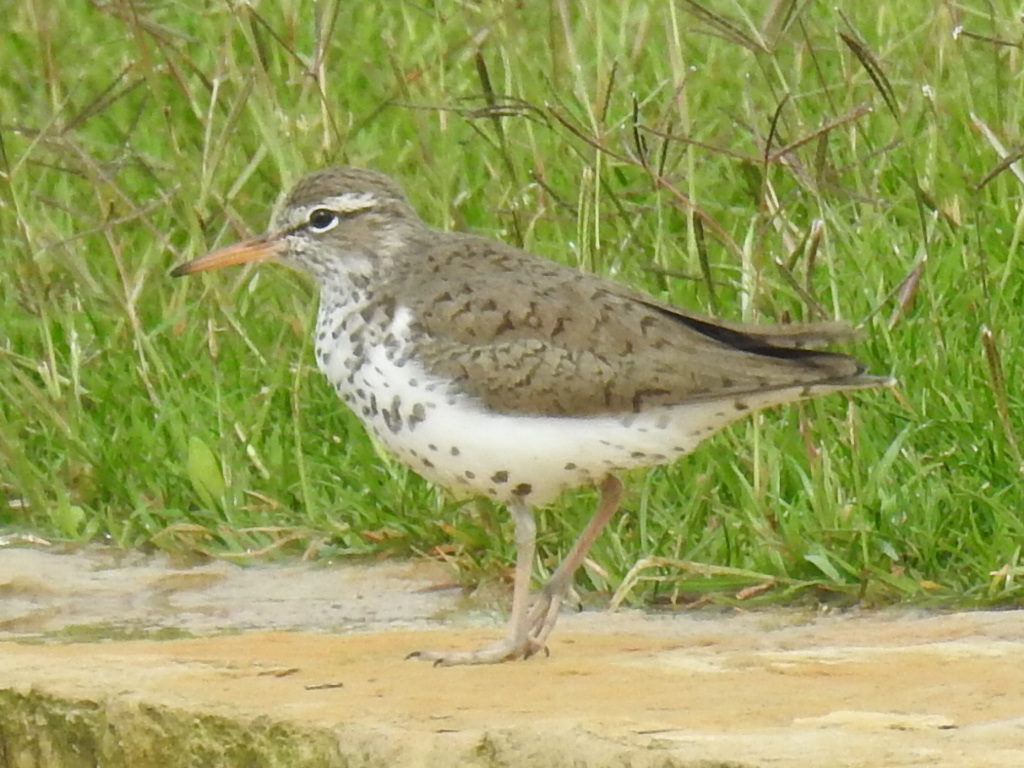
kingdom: Animalia
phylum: Chordata
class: Aves
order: Charadriiformes
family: Scolopacidae
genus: Actitis
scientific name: Actitis macularius
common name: Spotted sandpiper
